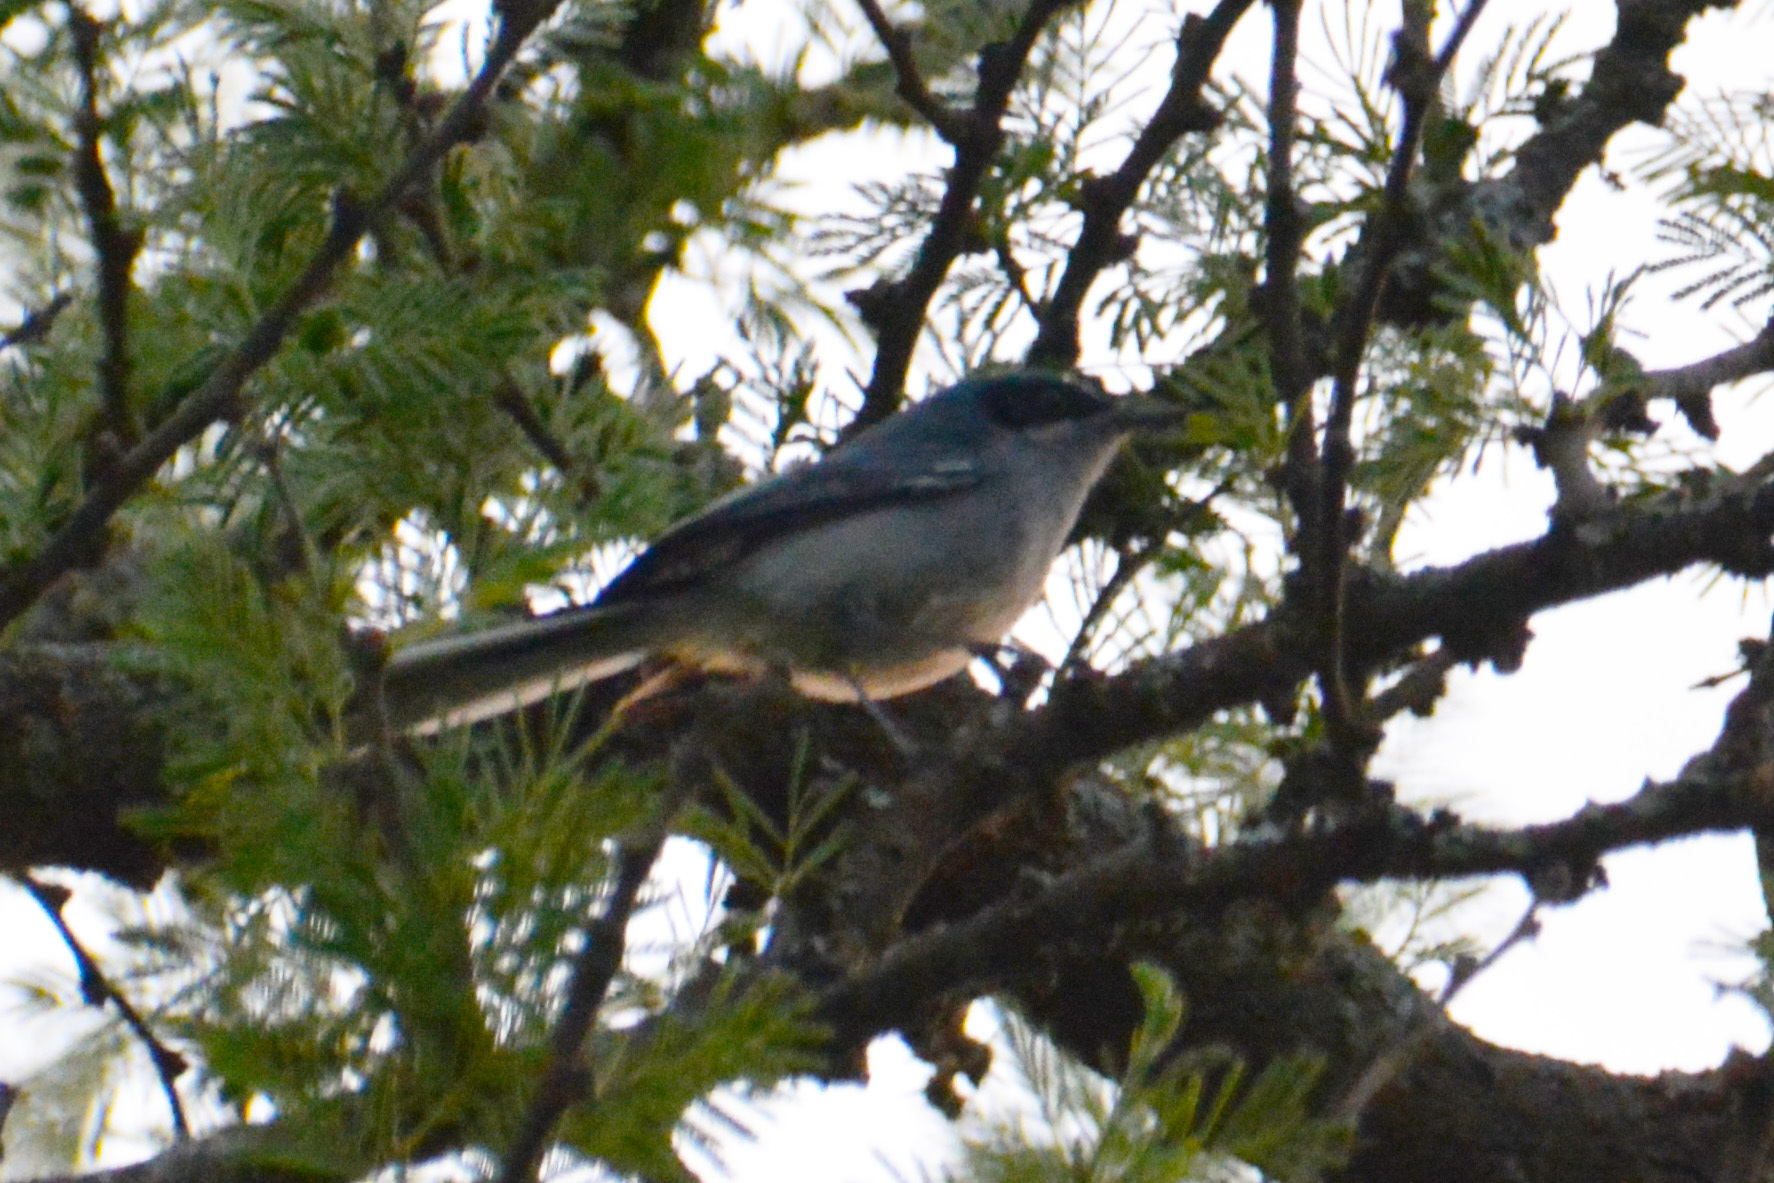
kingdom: Animalia
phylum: Chordata
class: Aves
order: Passeriformes
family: Polioptilidae
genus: Polioptila
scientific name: Polioptila dumicola
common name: Masked gnatcatcher
